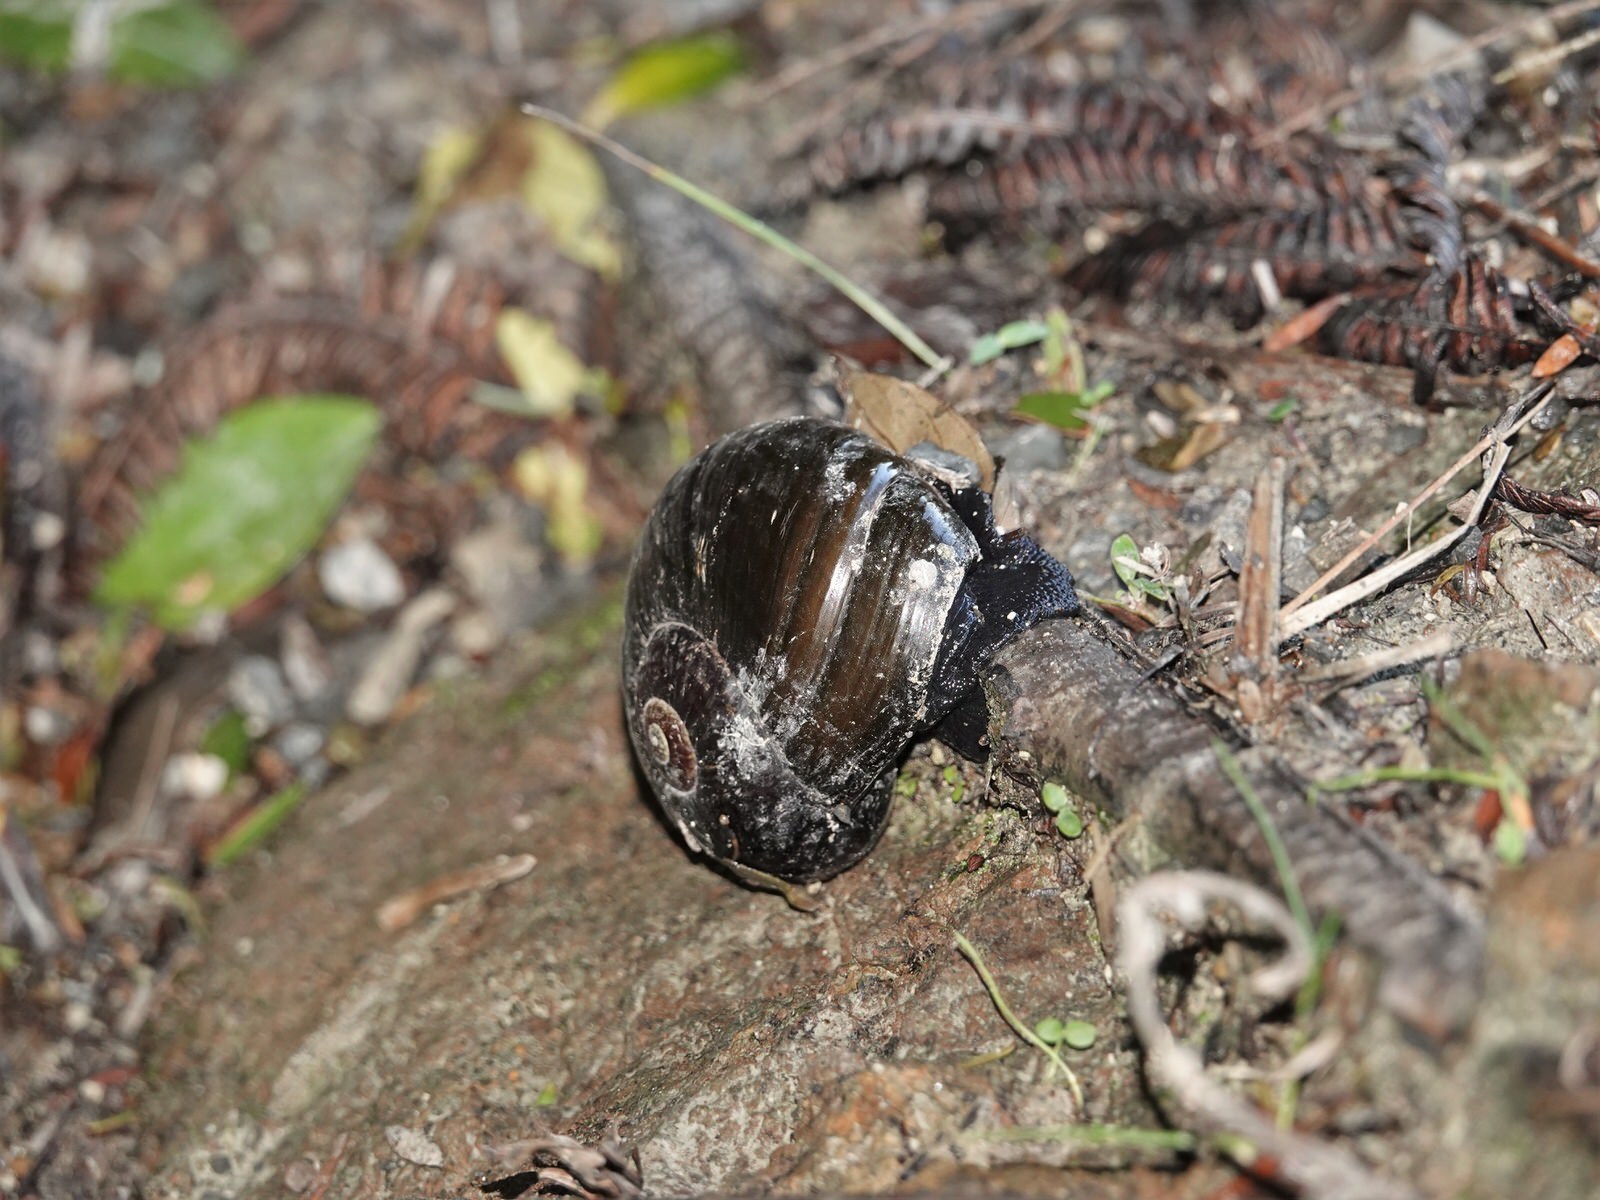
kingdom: Animalia
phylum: Mollusca
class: Gastropoda
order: Stylommatophora
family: Rhytididae
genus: Paryphanta
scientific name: Paryphanta busbyi
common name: Kauri snail
